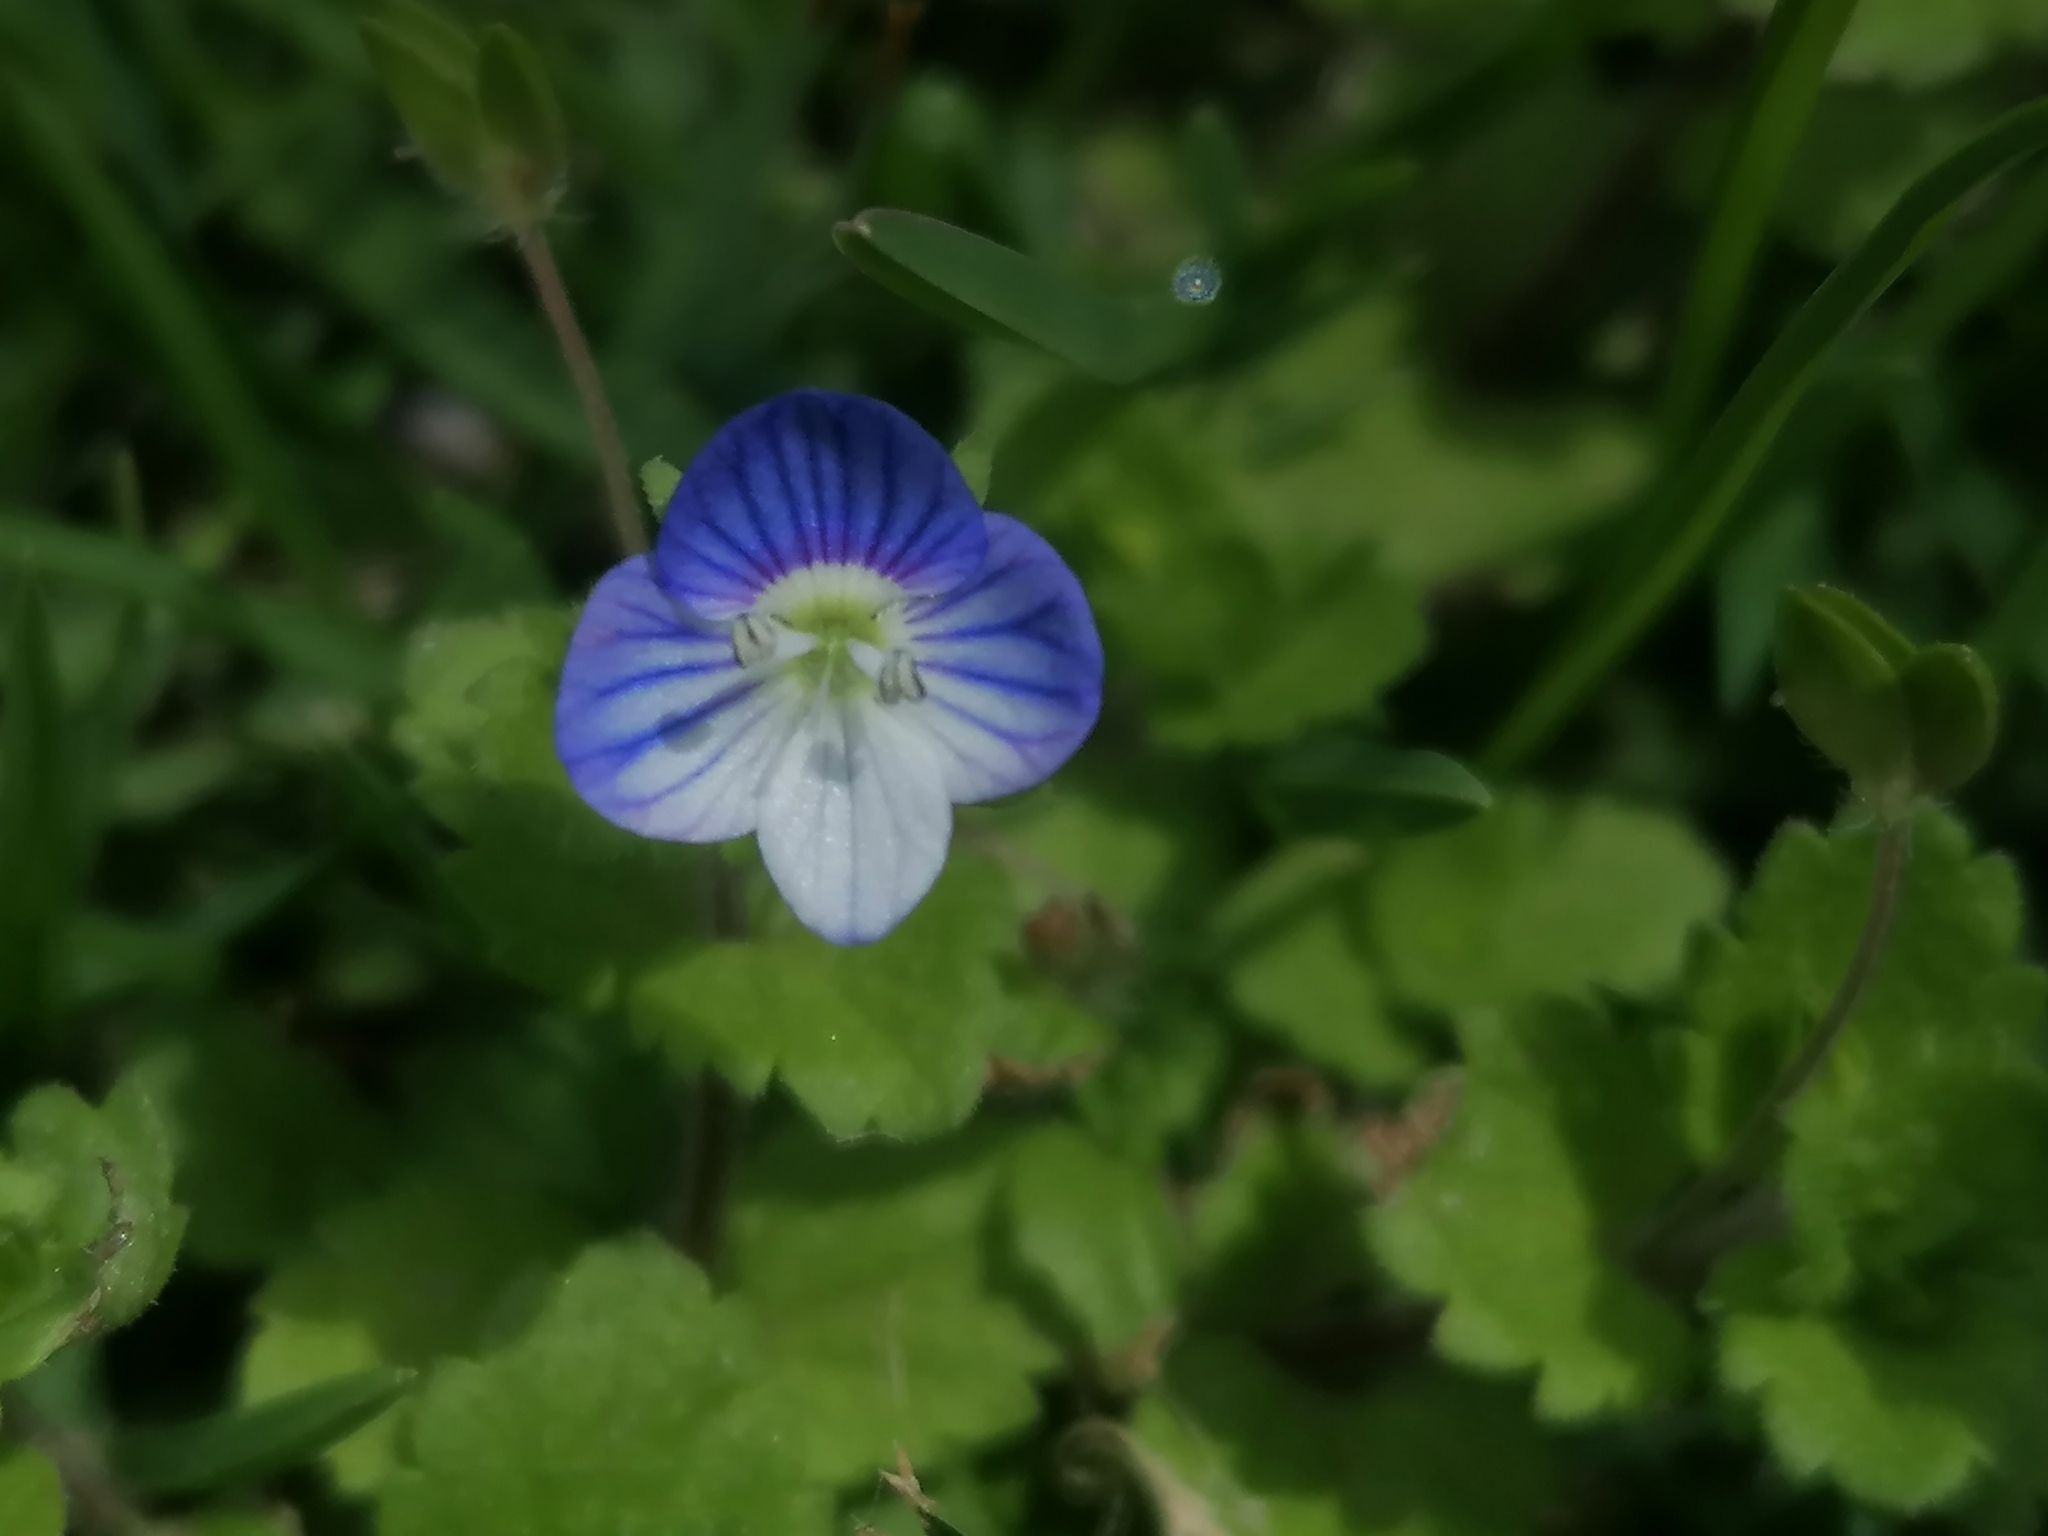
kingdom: Plantae
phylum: Tracheophyta
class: Magnoliopsida
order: Lamiales
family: Plantaginaceae
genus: Veronica
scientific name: Veronica persica
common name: Common field-speedwell
